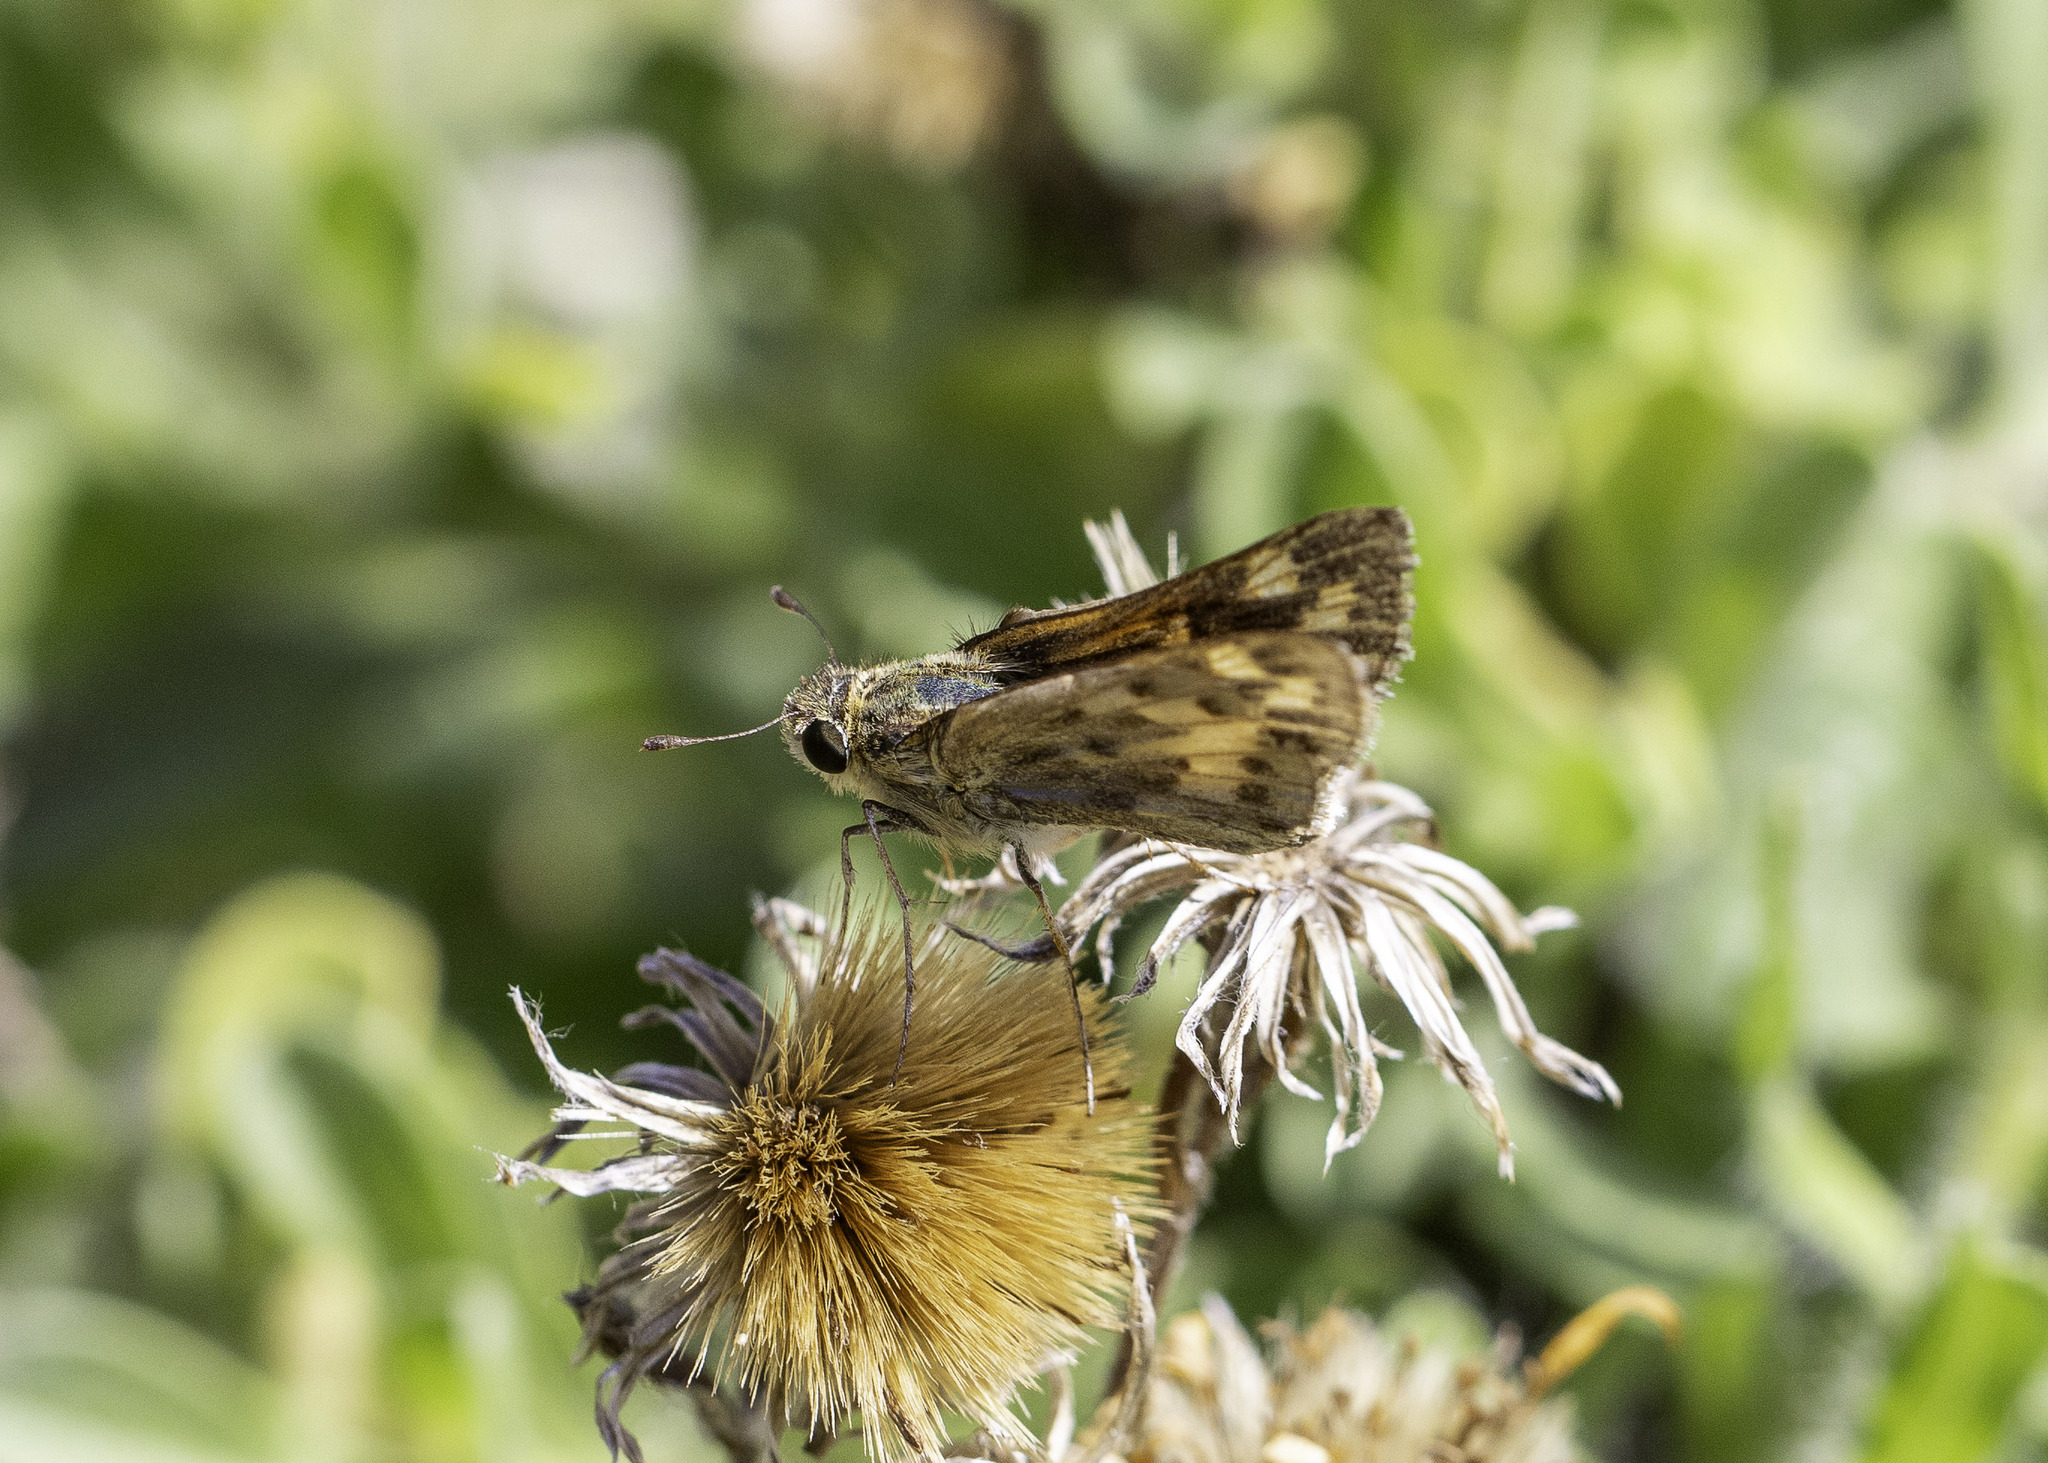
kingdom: Animalia
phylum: Arthropoda
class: Insecta
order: Lepidoptera
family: Hesperiidae
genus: Hylephila
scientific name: Hylephila phyleus
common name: Fiery skipper
